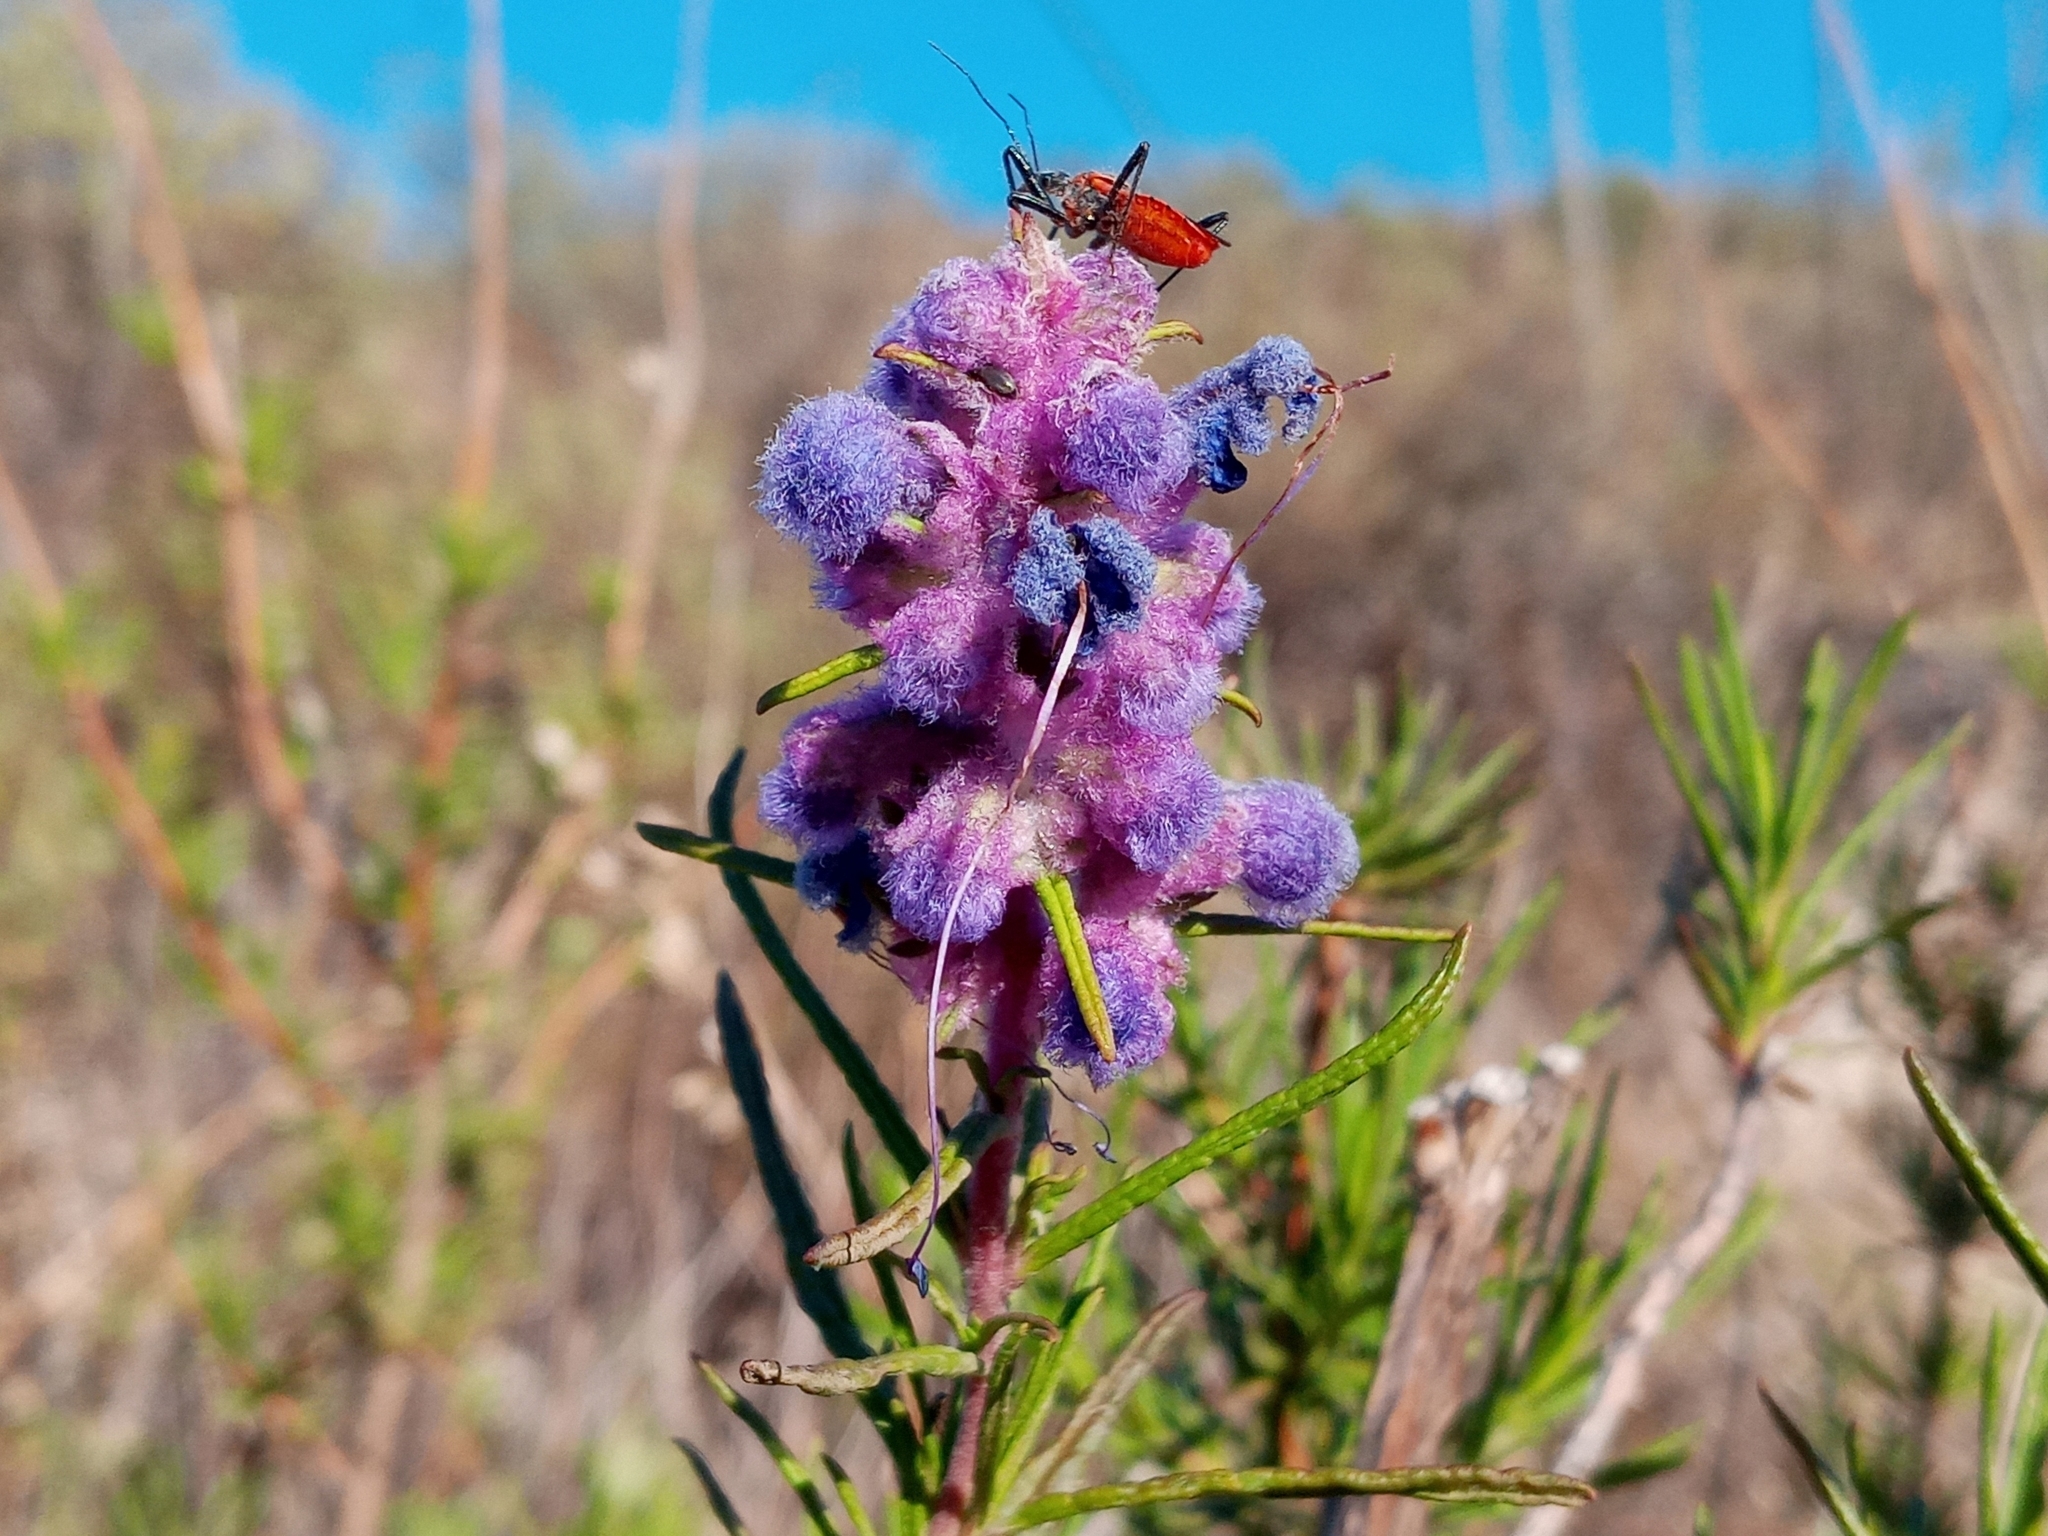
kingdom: Plantae
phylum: Tracheophyta
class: Magnoliopsida
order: Lamiales
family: Lamiaceae
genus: Trichostema
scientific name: Trichostema lanatum
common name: Woolly bluecurls
